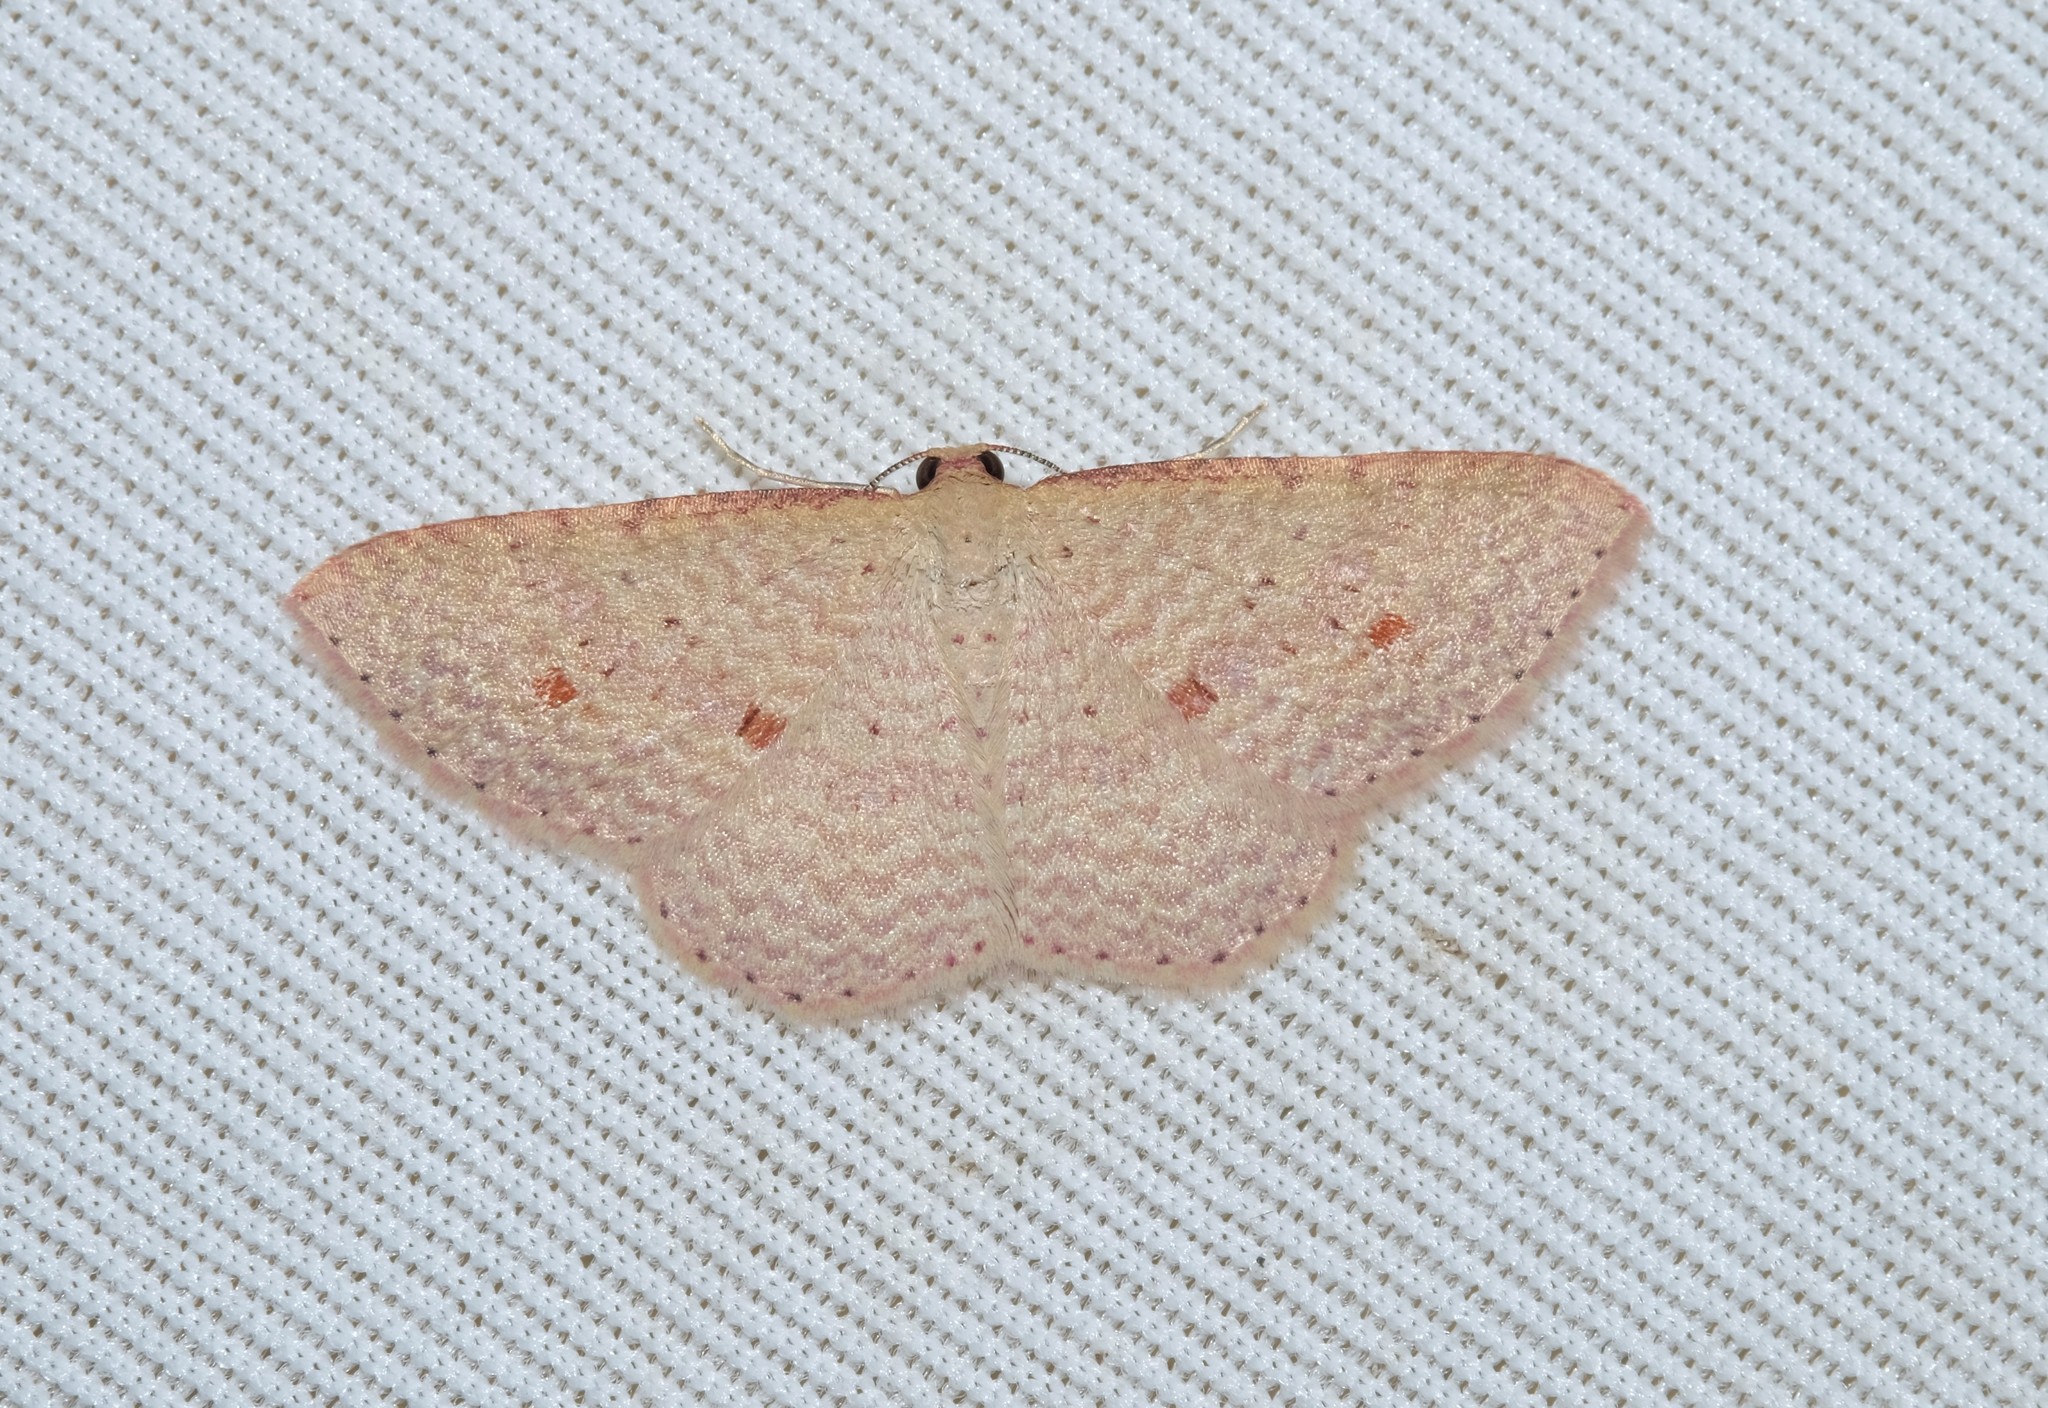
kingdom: Animalia
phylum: Arthropoda
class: Insecta
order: Lepidoptera
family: Geometridae
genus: Epicyme
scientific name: Epicyme rubropunctaria
